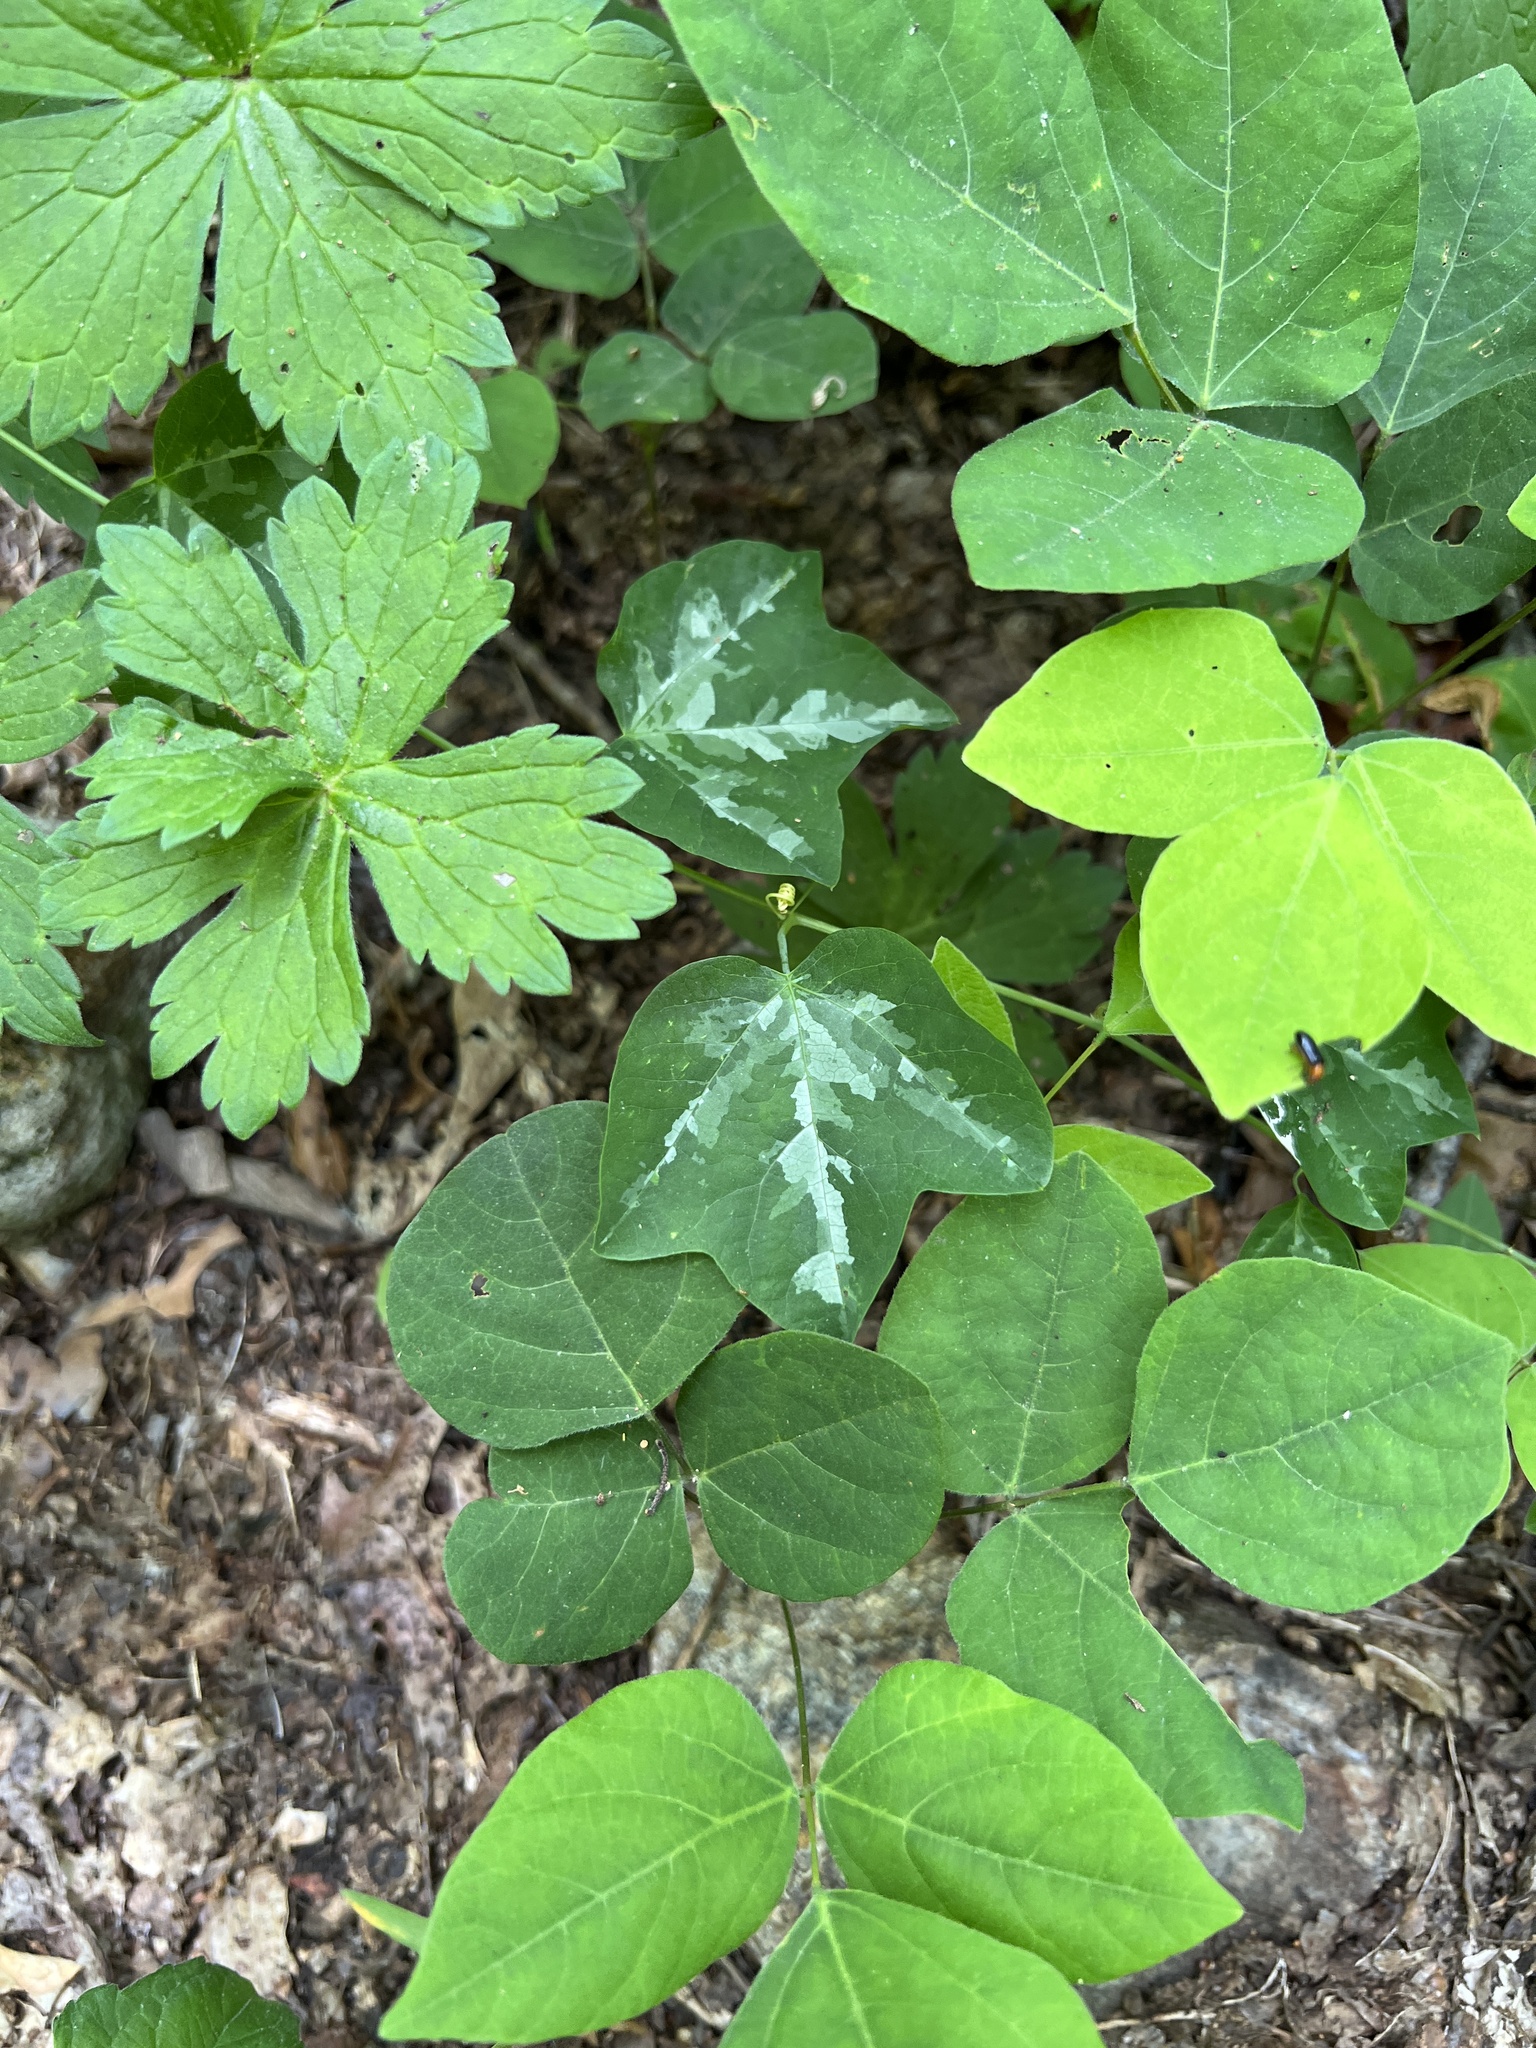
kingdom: Plantae
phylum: Tracheophyta
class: Magnoliopsida
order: Malpighiales
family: Passifloraceae
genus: Passiflora
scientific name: Passiflora lutea
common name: Yellow passionflower
